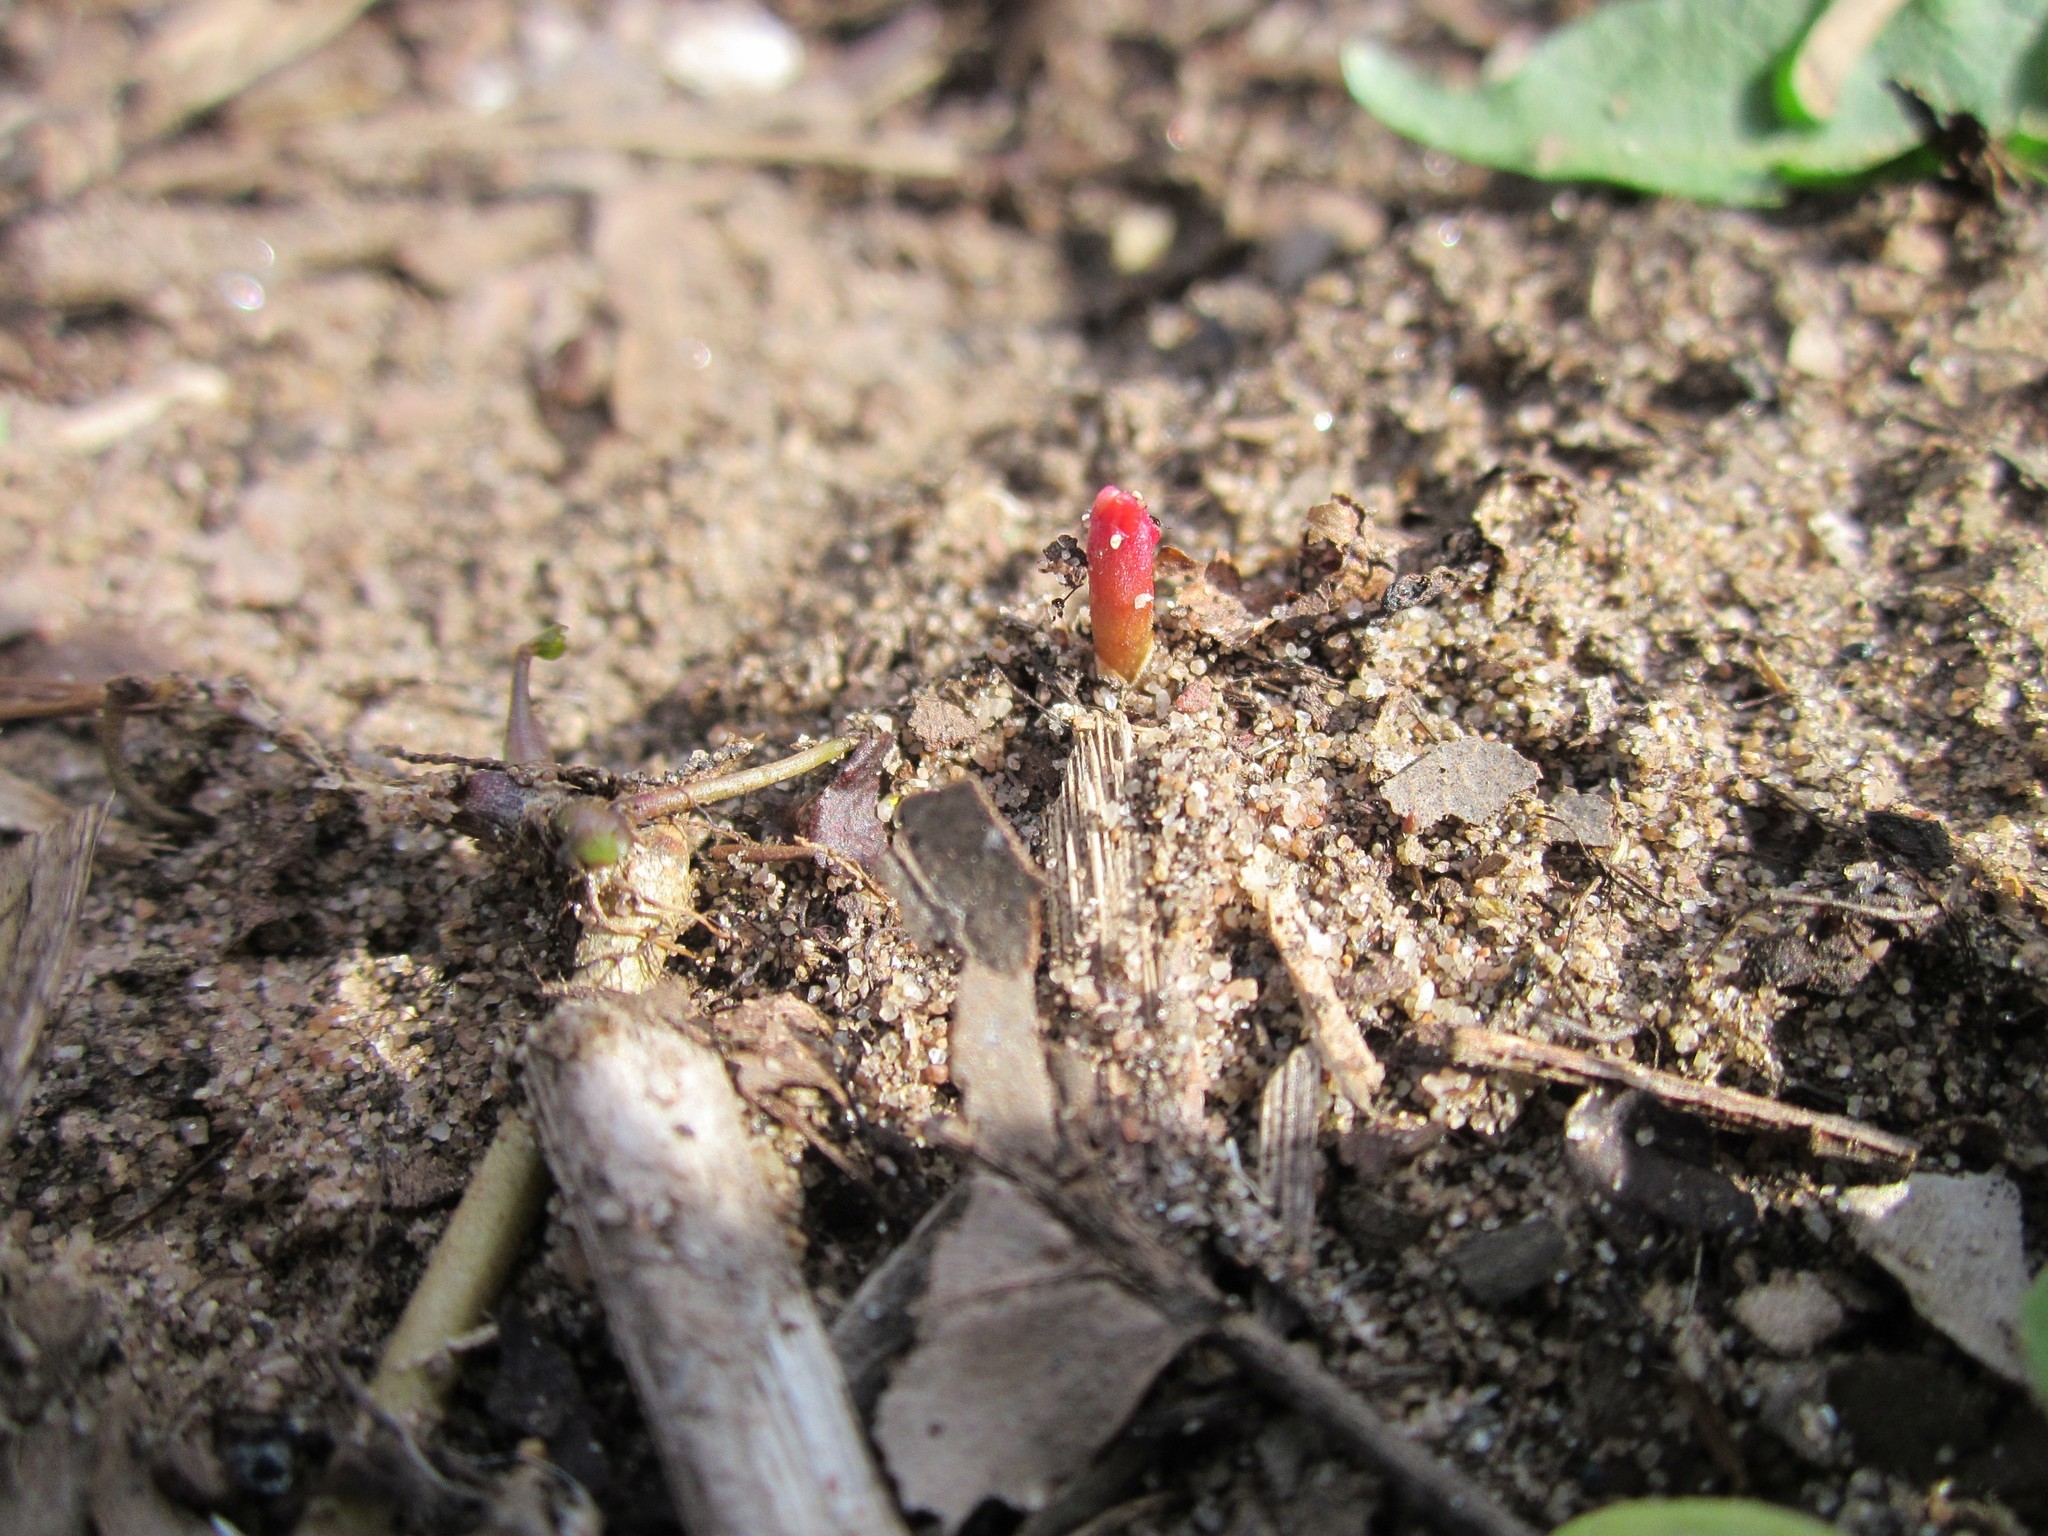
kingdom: Plantae
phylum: Tracheophyta
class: Magnoliopsida
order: Caryophyllales
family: Polygonaceae
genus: Reynoutria
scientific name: Reynoutria japonica
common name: Japanese knotweed
